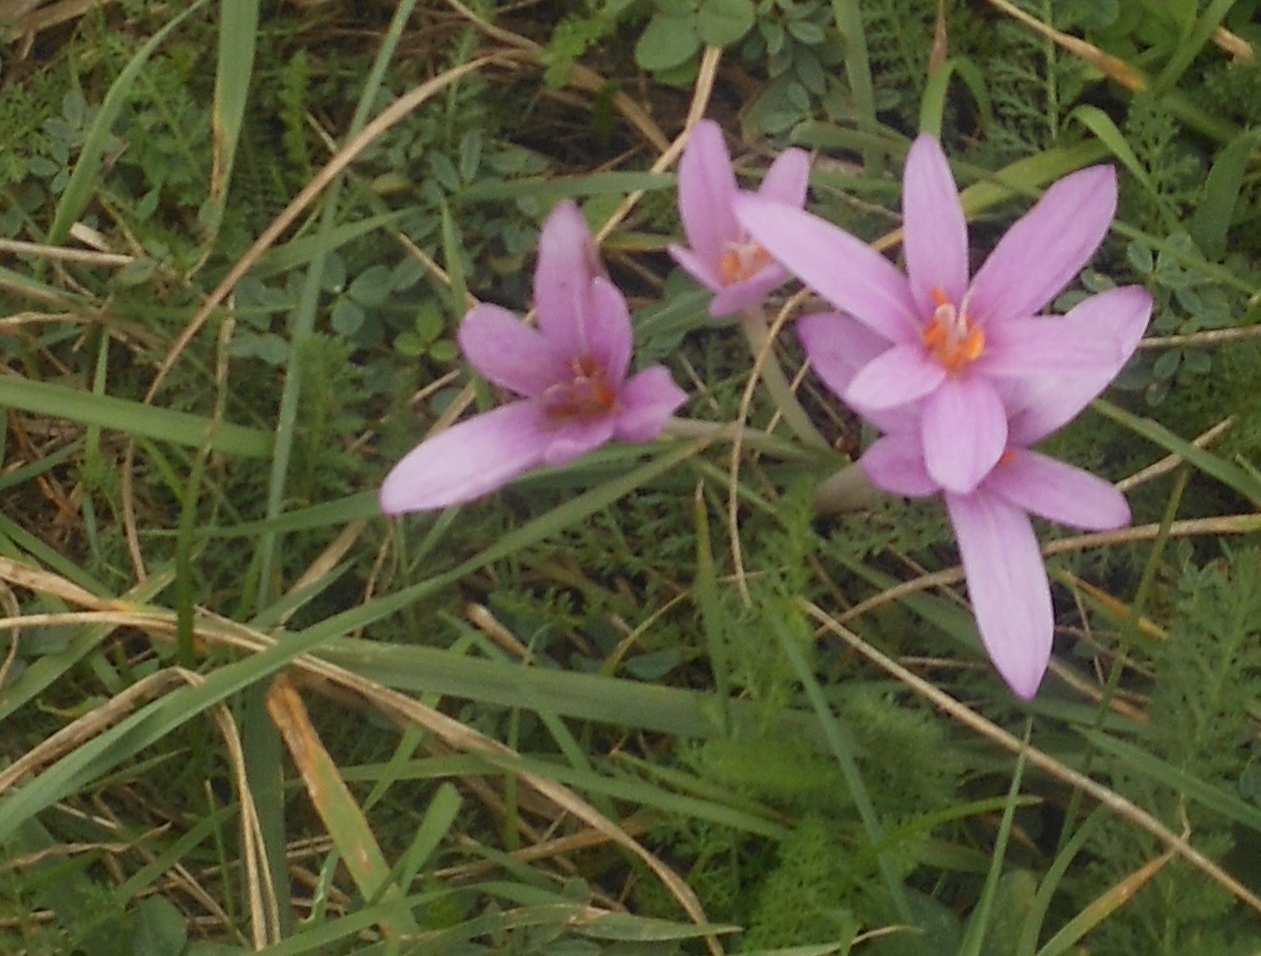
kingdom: Plantae
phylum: Tracheophyta
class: Liliopsida
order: Liliales
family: Colchicaceae
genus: Colchicum
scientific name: Colchicum autumnale
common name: Autumn crocus
